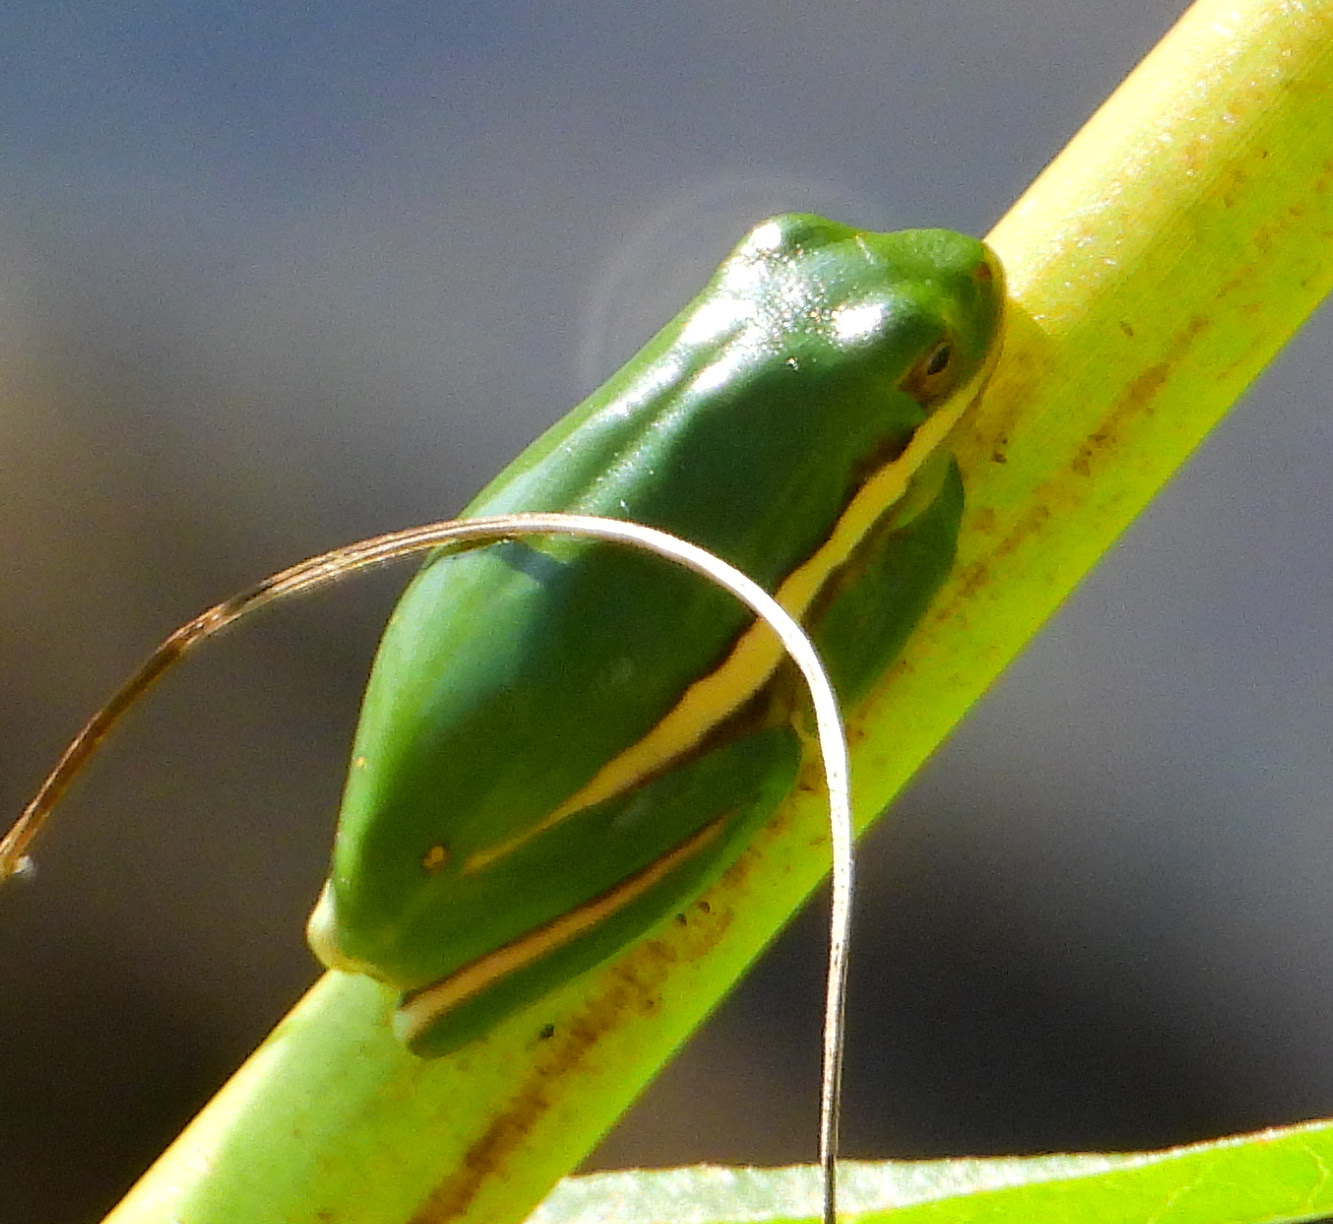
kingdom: Animalia
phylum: Chordata
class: Amphibia
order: Anura
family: Hylidae
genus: Dryophytes
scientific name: Dryophytes cinereus
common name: Green treefrog
